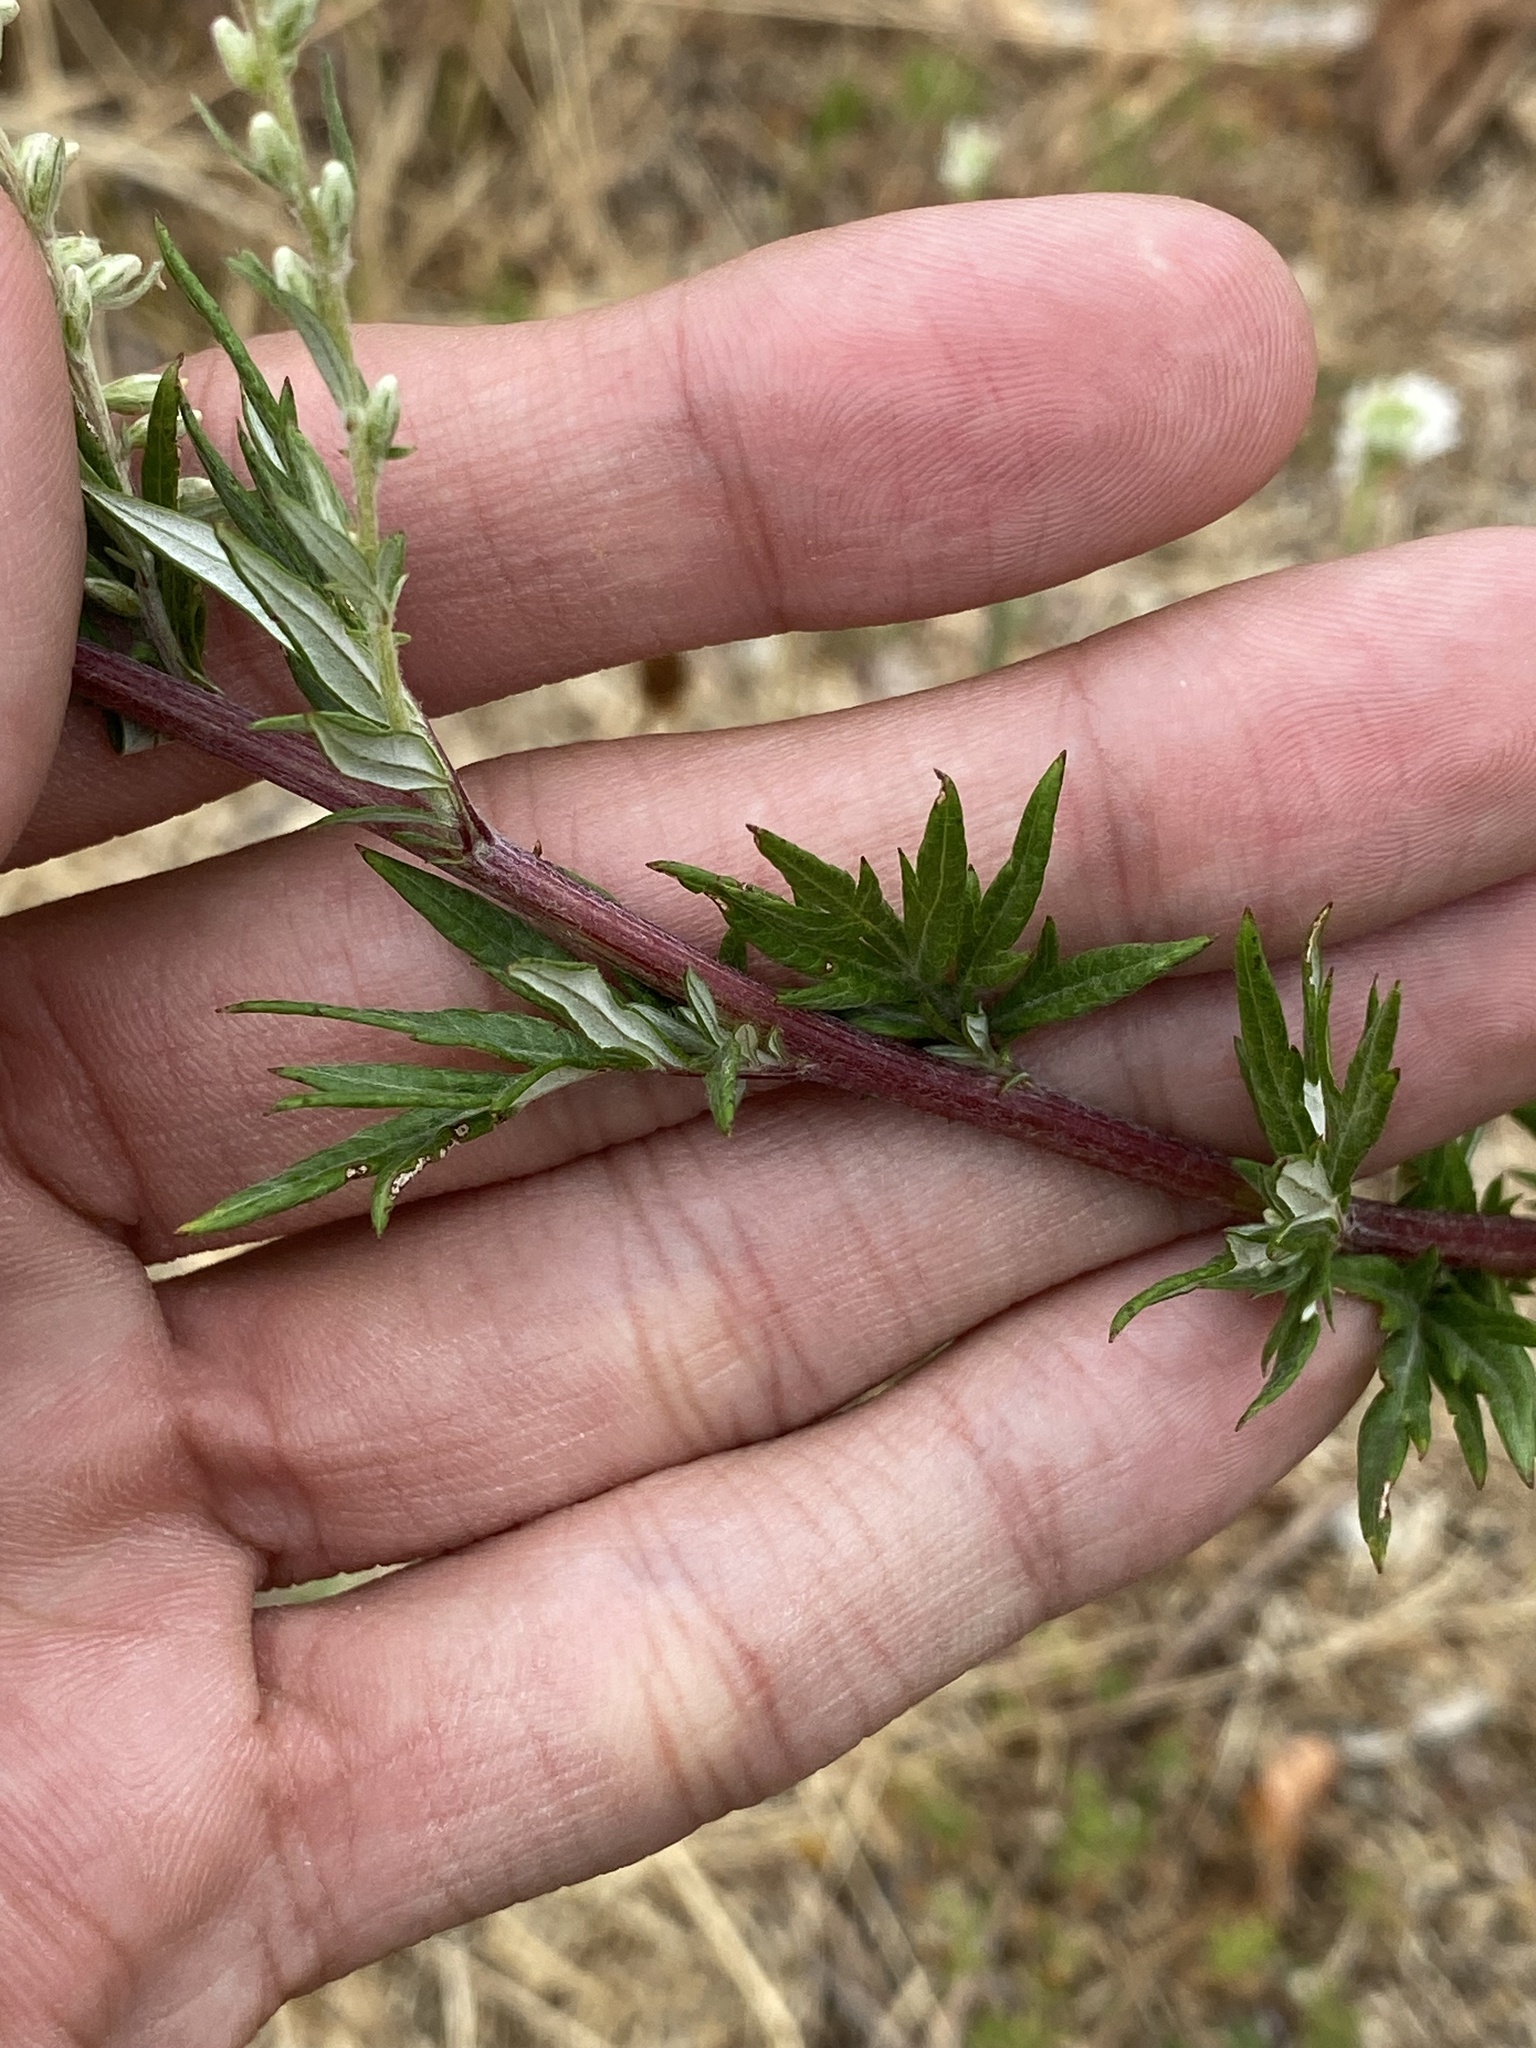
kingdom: Plantae
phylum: Tracheophyta
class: Magnoliopsida
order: Asterales
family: Asteraceae
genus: Artemisia
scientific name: Artemisia vulgaris
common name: Mugwort
